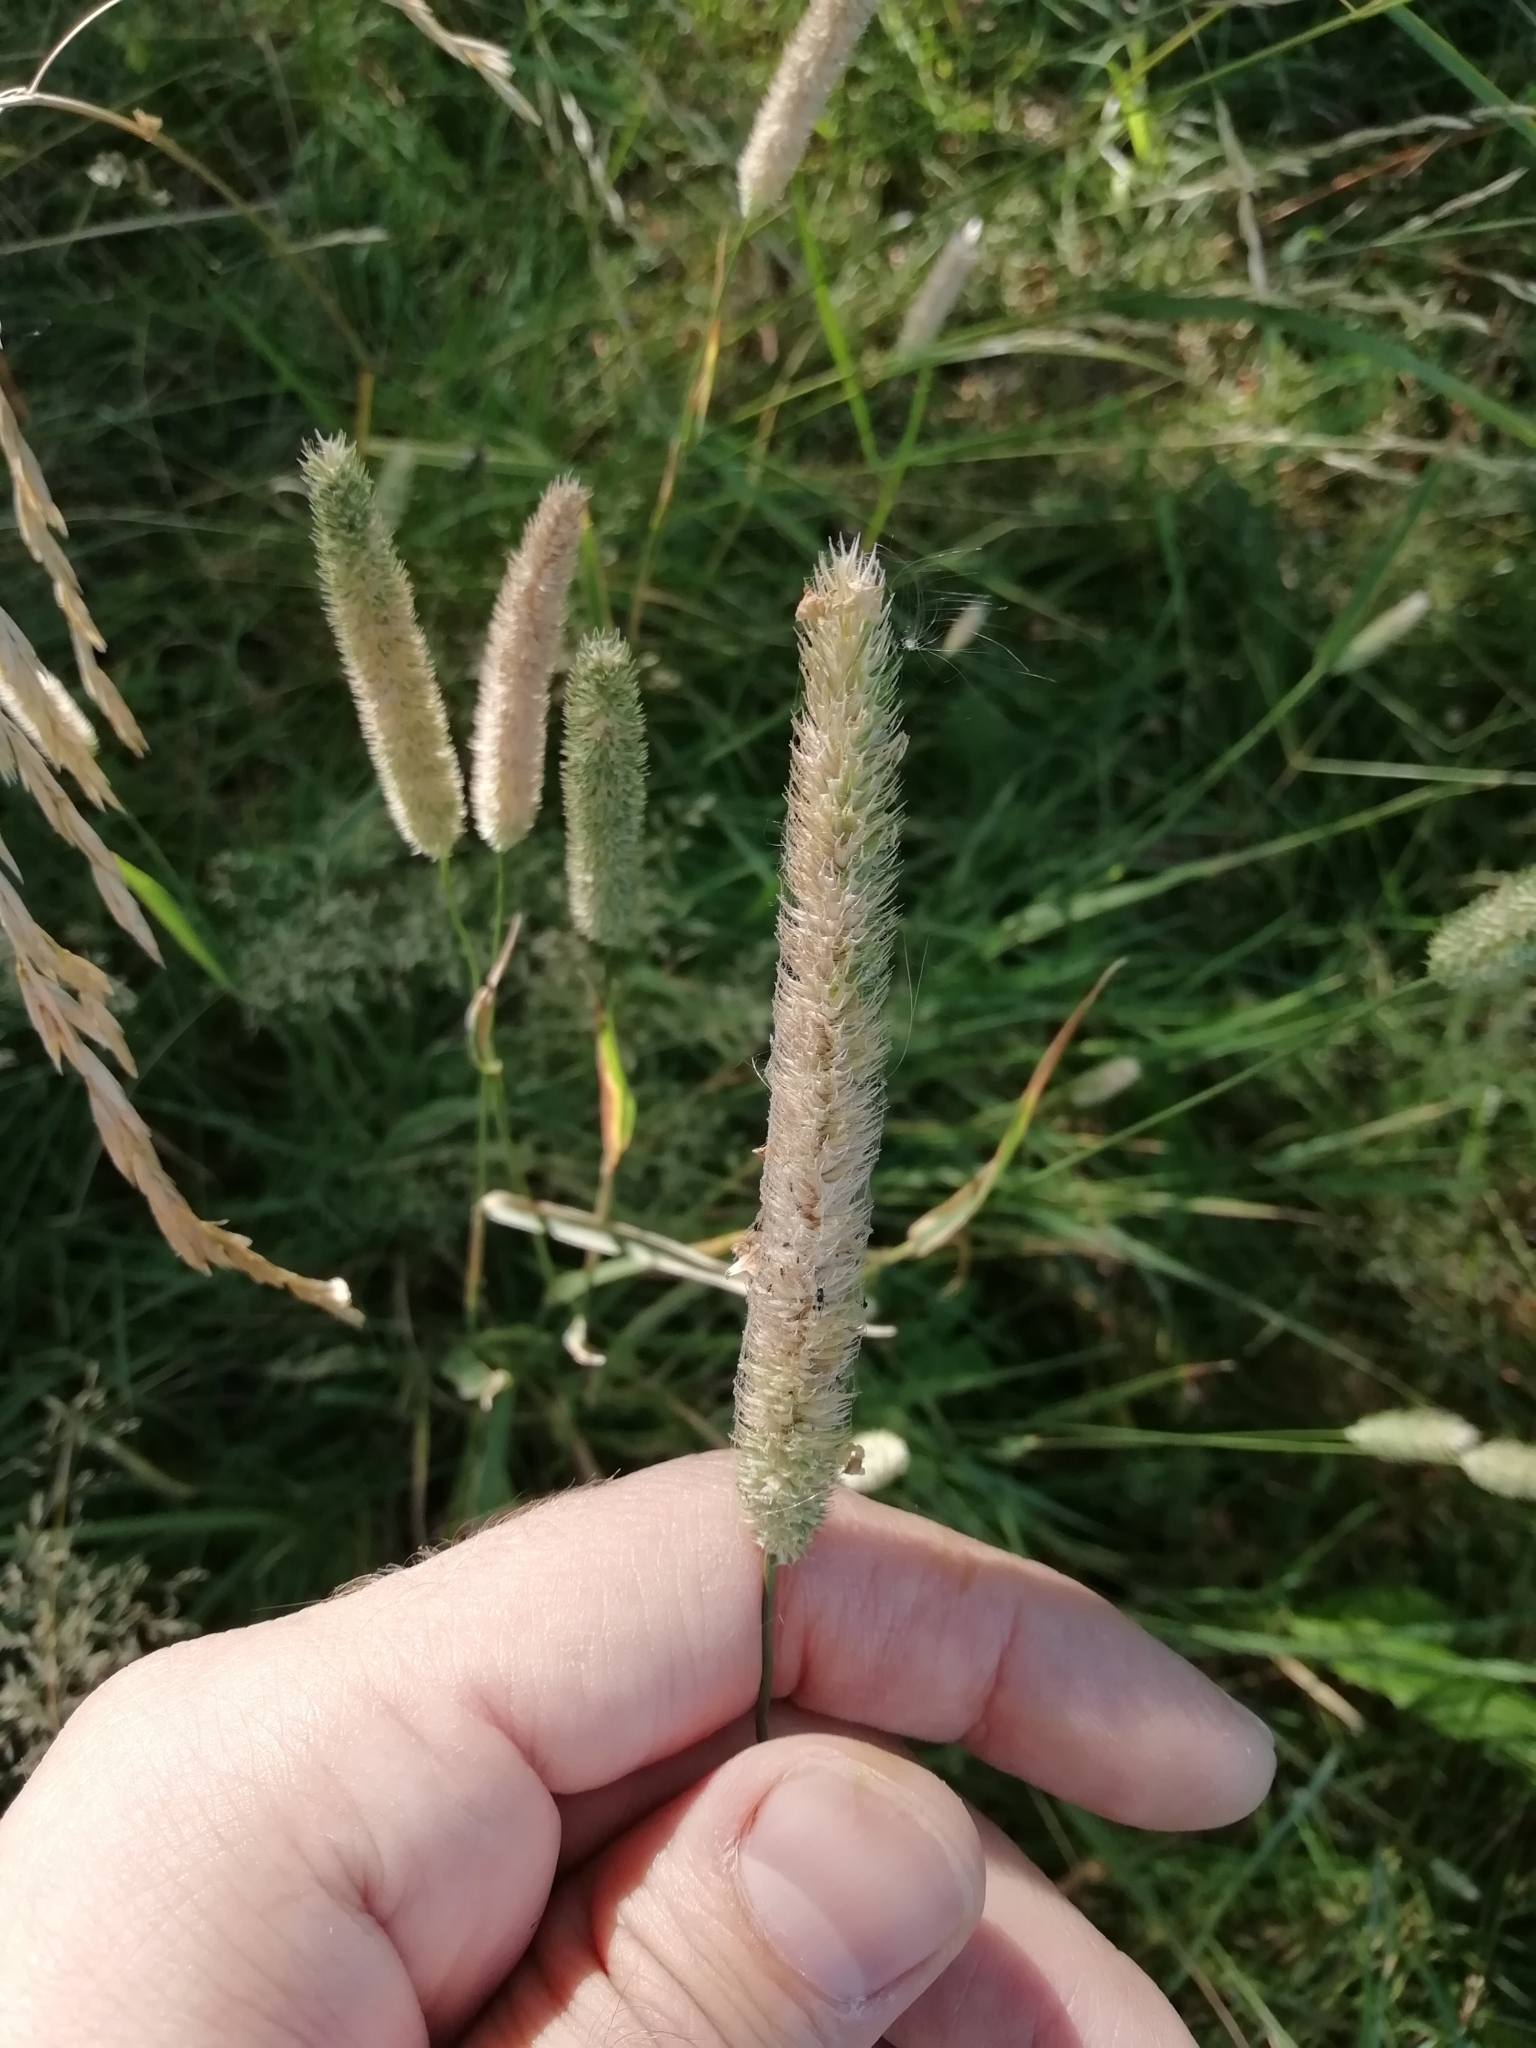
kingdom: Plantae
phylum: Tracheophyta
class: Liliopsida
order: Poales
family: Poaceae
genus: Phleum
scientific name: Phleum pratense
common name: Timothy grass
